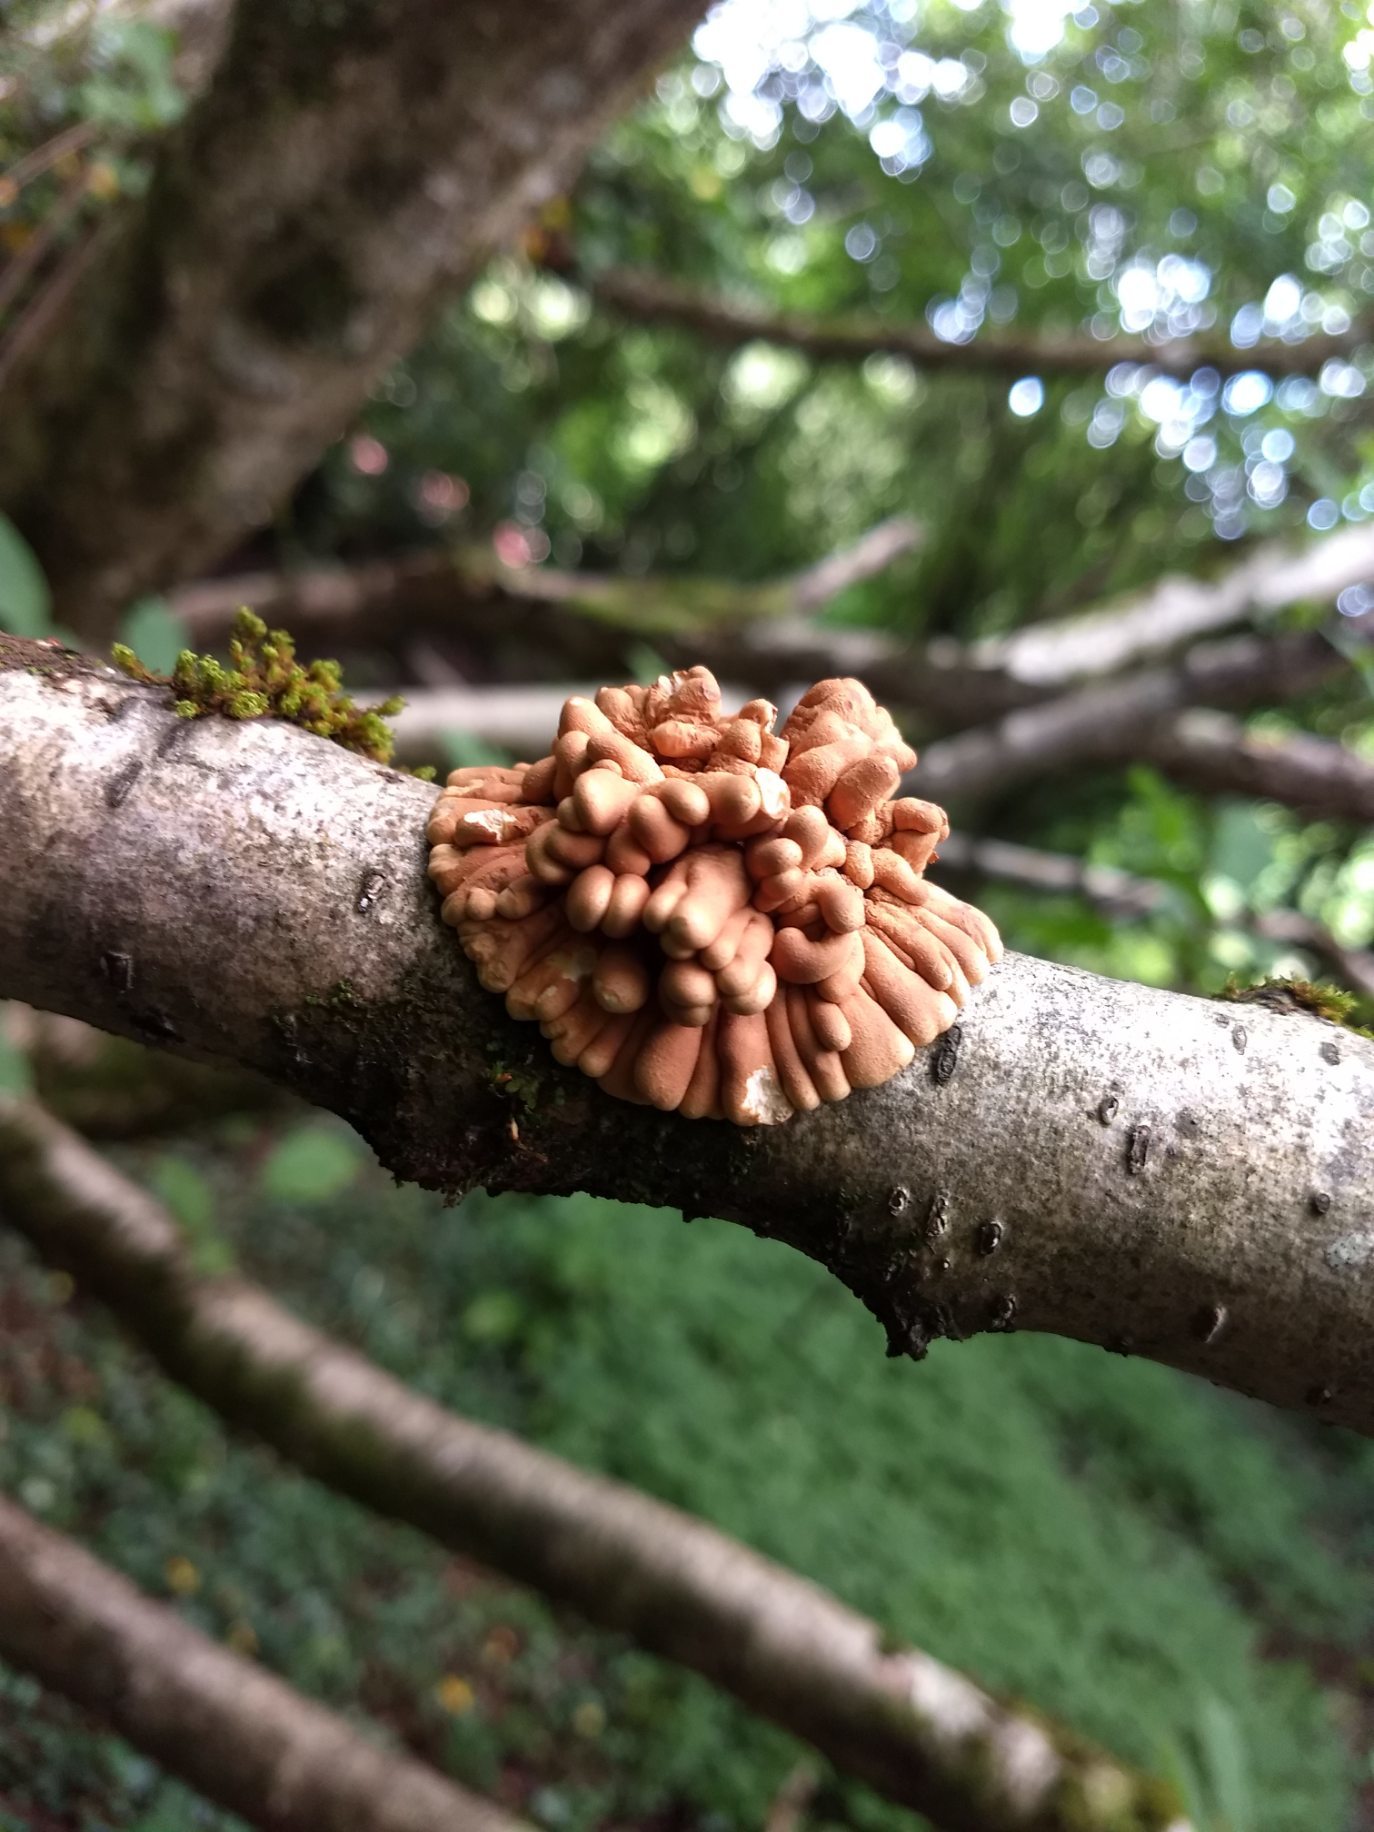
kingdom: Fungi
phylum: Ascomycota
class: Sordariomycetes
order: Hypocreales
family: Hypocreaceae
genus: Hypocreopsis
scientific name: Hypocreopsis rhododendri
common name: Hazel gloves
